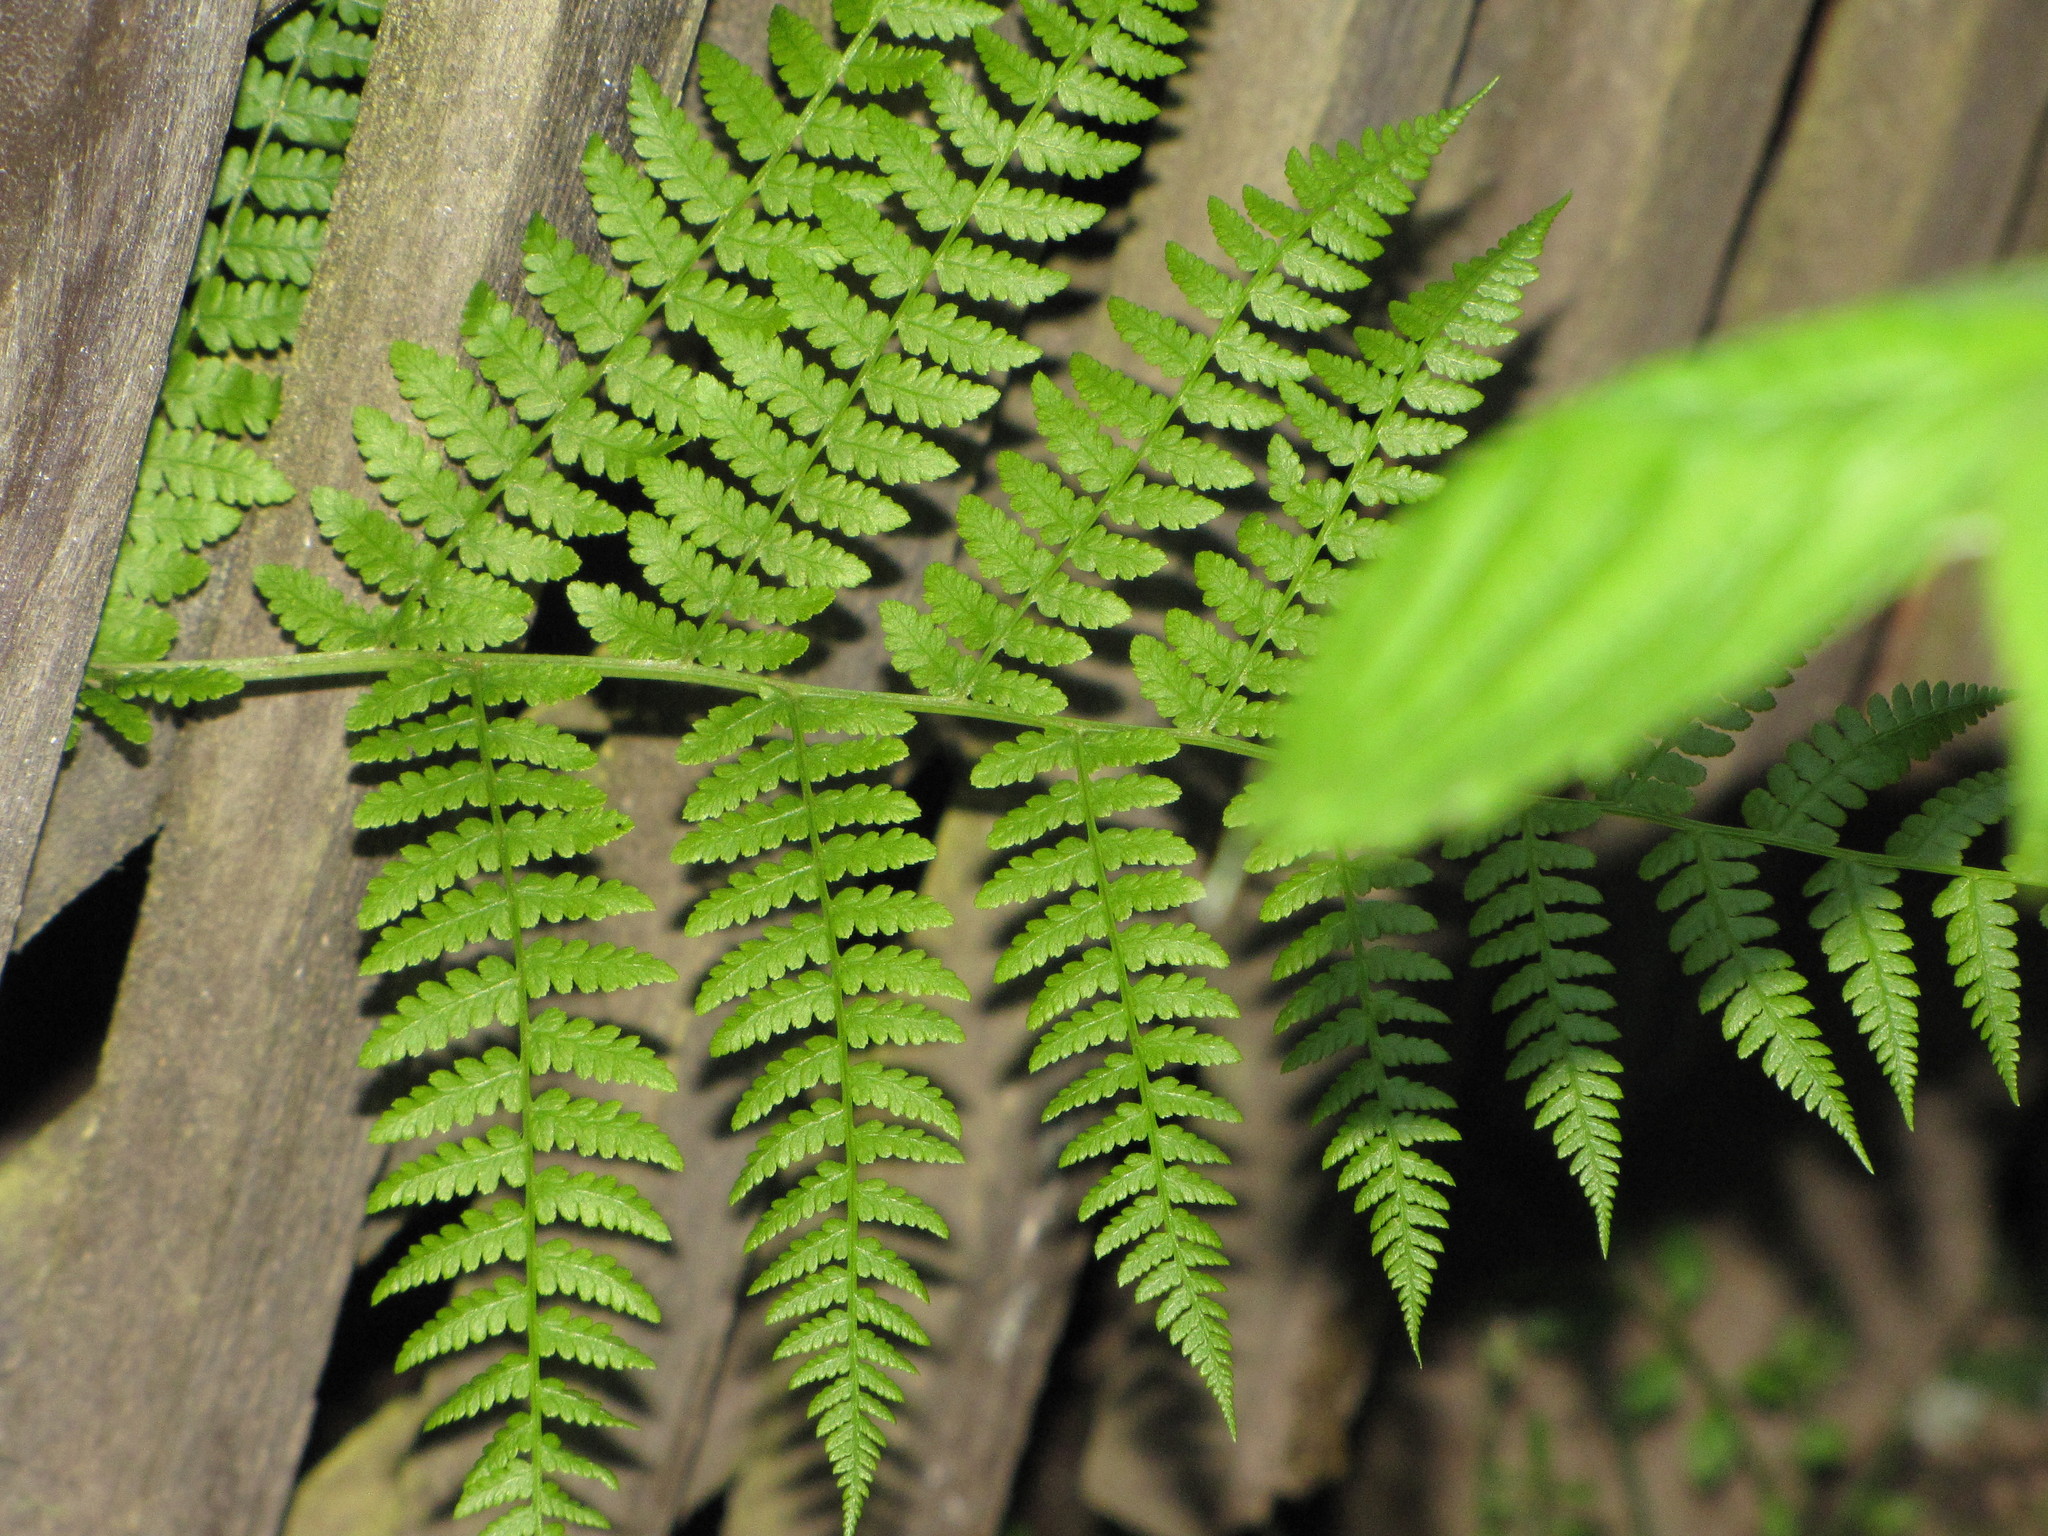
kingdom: Plantae
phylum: Tracheophyta
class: Polypodiopsida
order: Polypodiales
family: Athyriaceae
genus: Athyrium
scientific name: Athyrium filix-femina
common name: Lady fern
